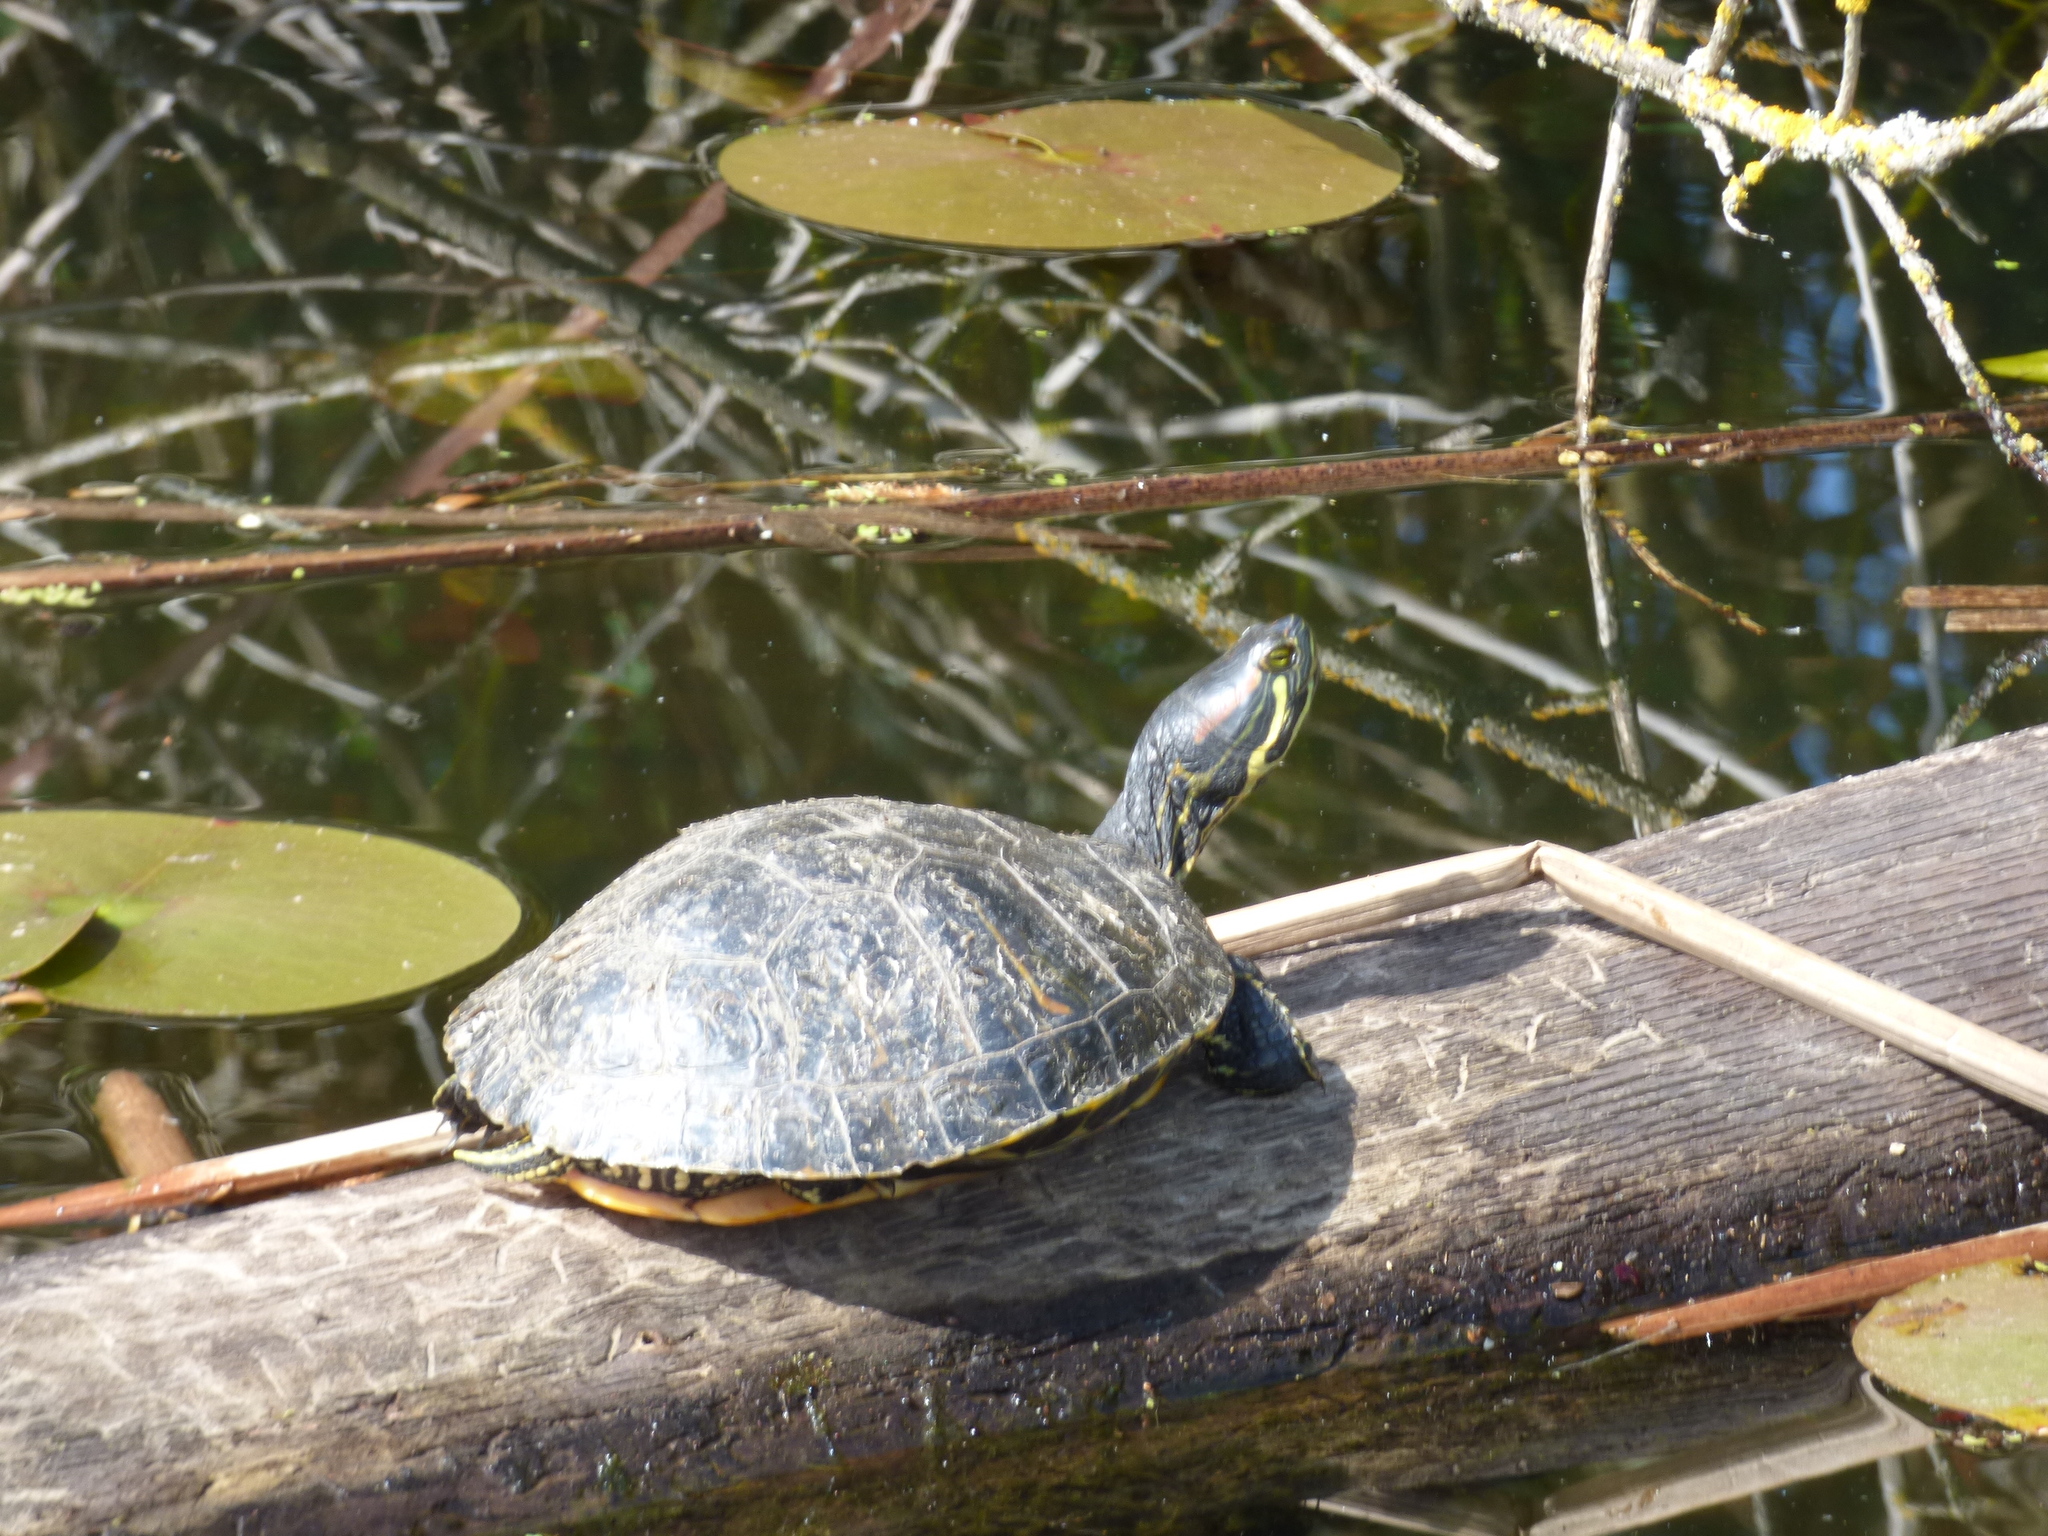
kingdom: Animalia
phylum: Chordata
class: Testudines
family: Emydidae
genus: Trachemys
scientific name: Trachemys scripta
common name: Slider
